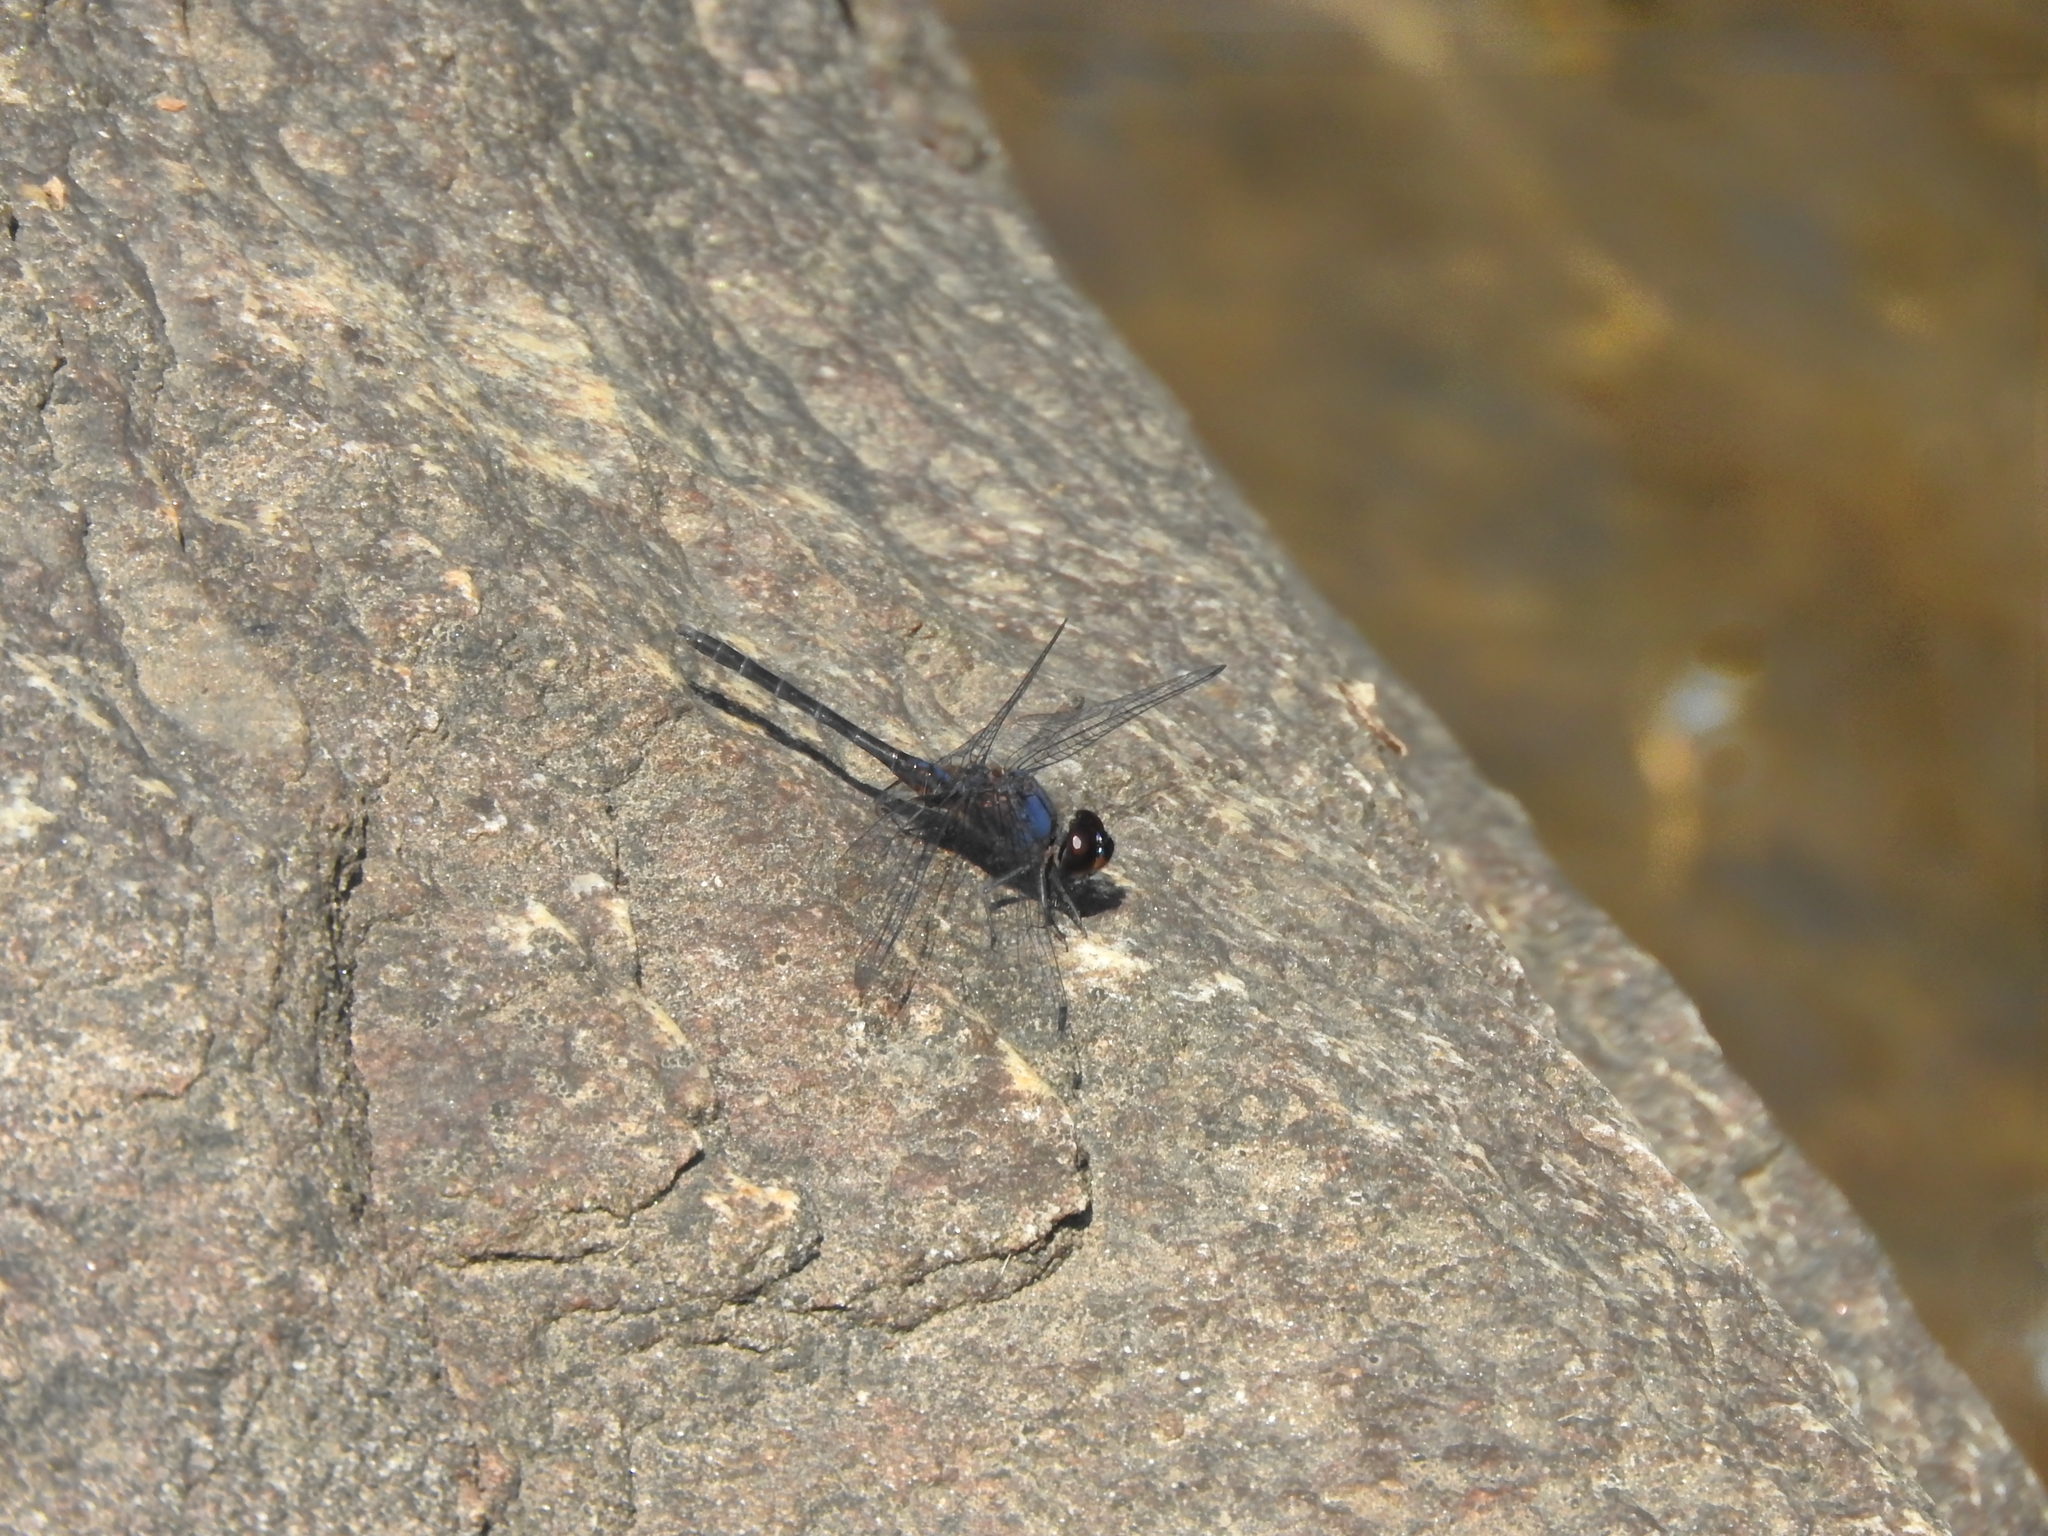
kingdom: Animalia
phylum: Arthropoda
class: Insecta
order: Odonata
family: Libellulidae
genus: Trithemis
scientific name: Trithemis festiva
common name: Indigo dropwing
